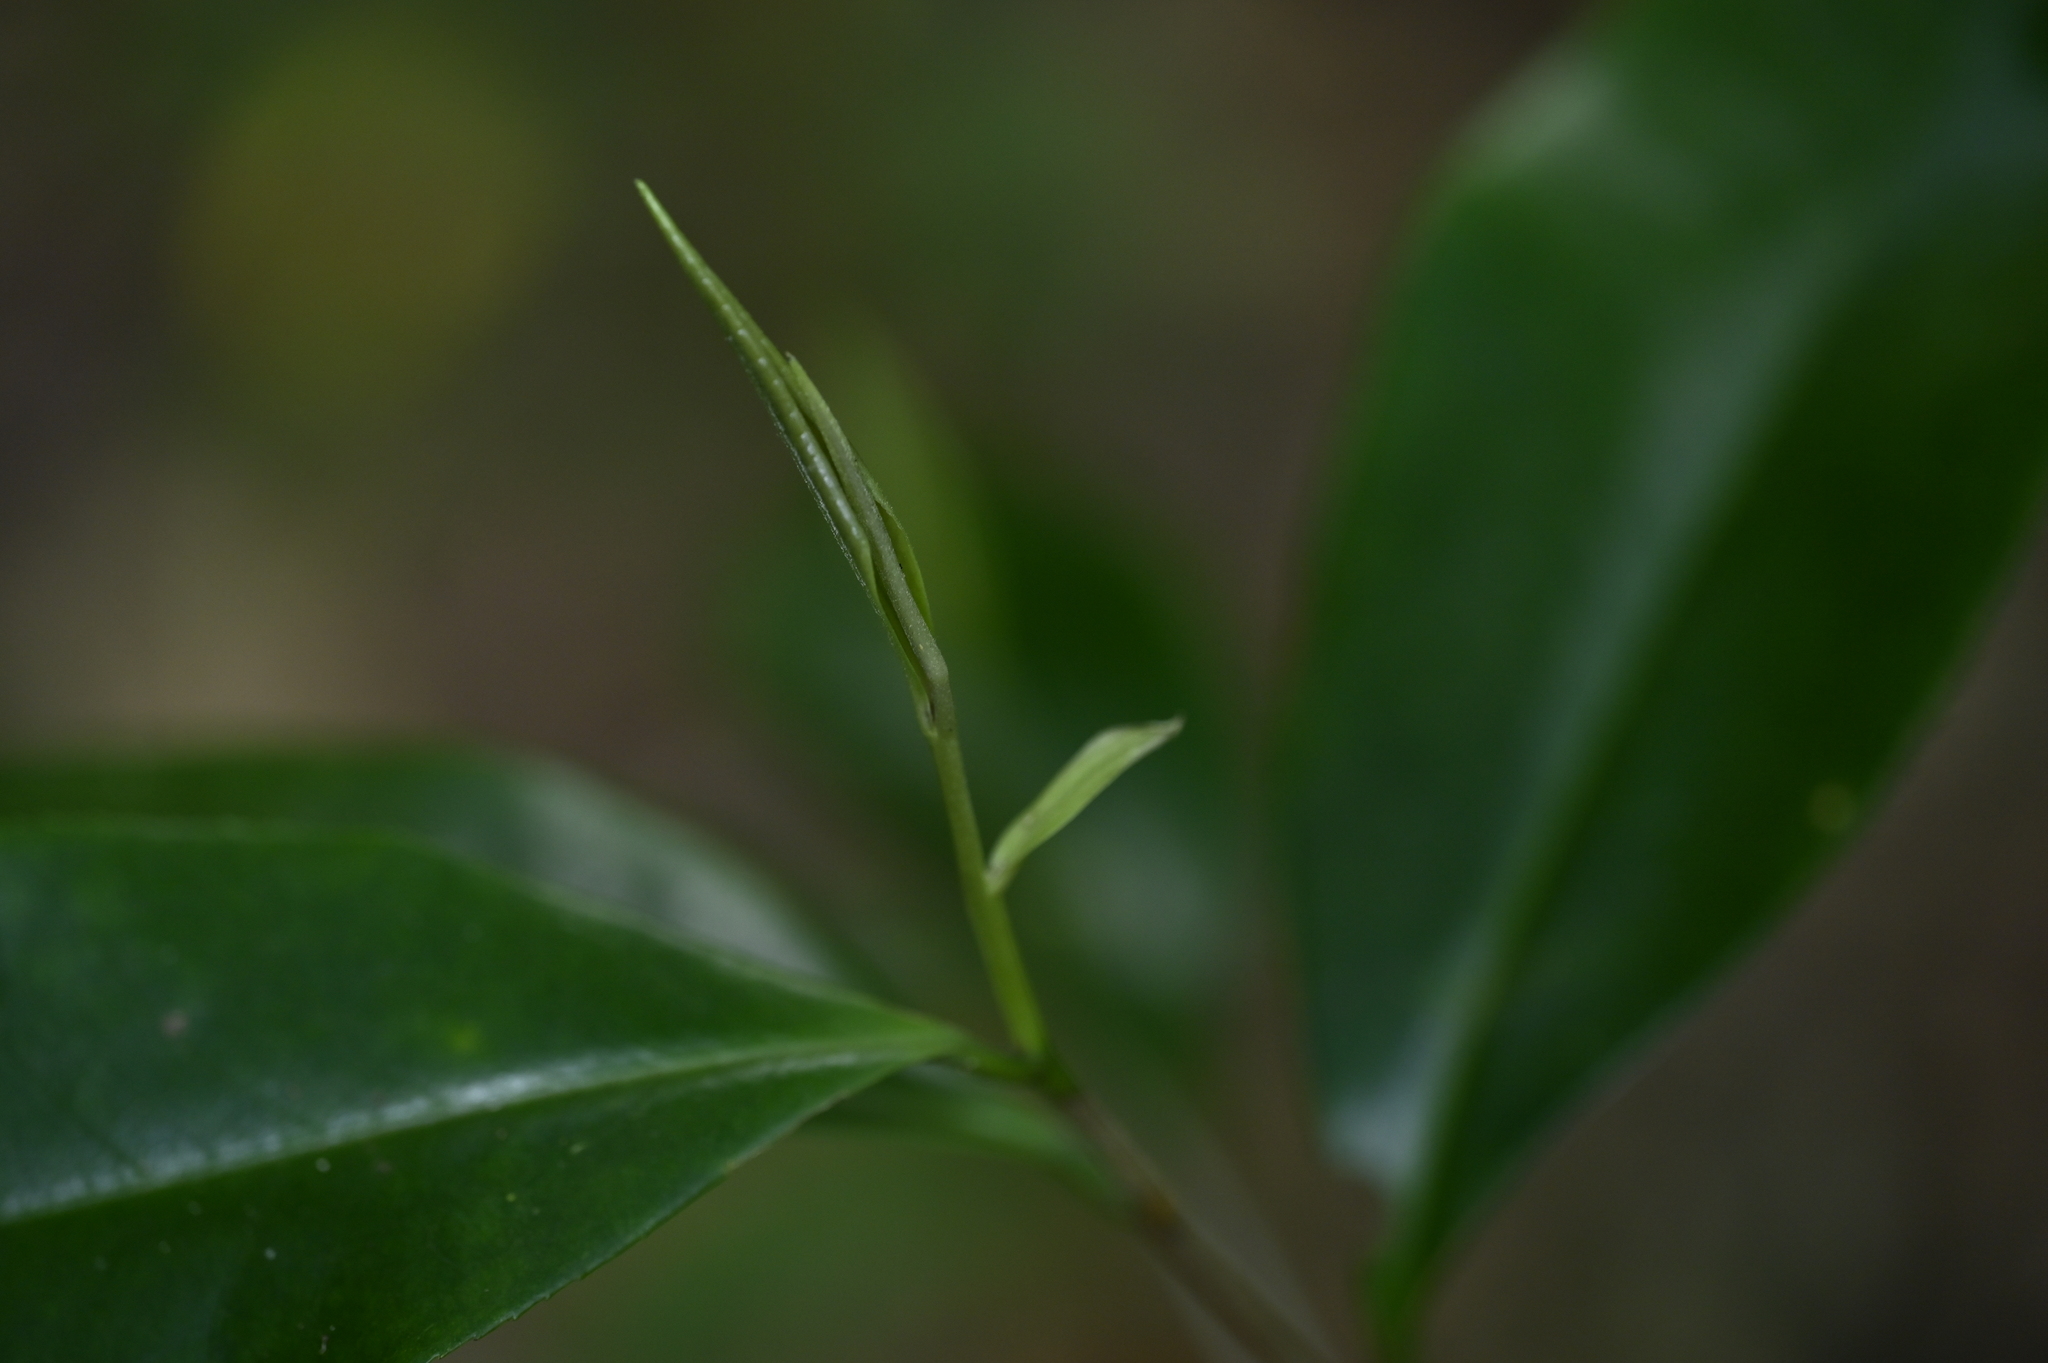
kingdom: Plantae
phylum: Tracheophyta
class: Magnoliopsida
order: Ericales
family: Theaceae
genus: Pyrenaria
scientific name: Pyrenaria microcarpa
